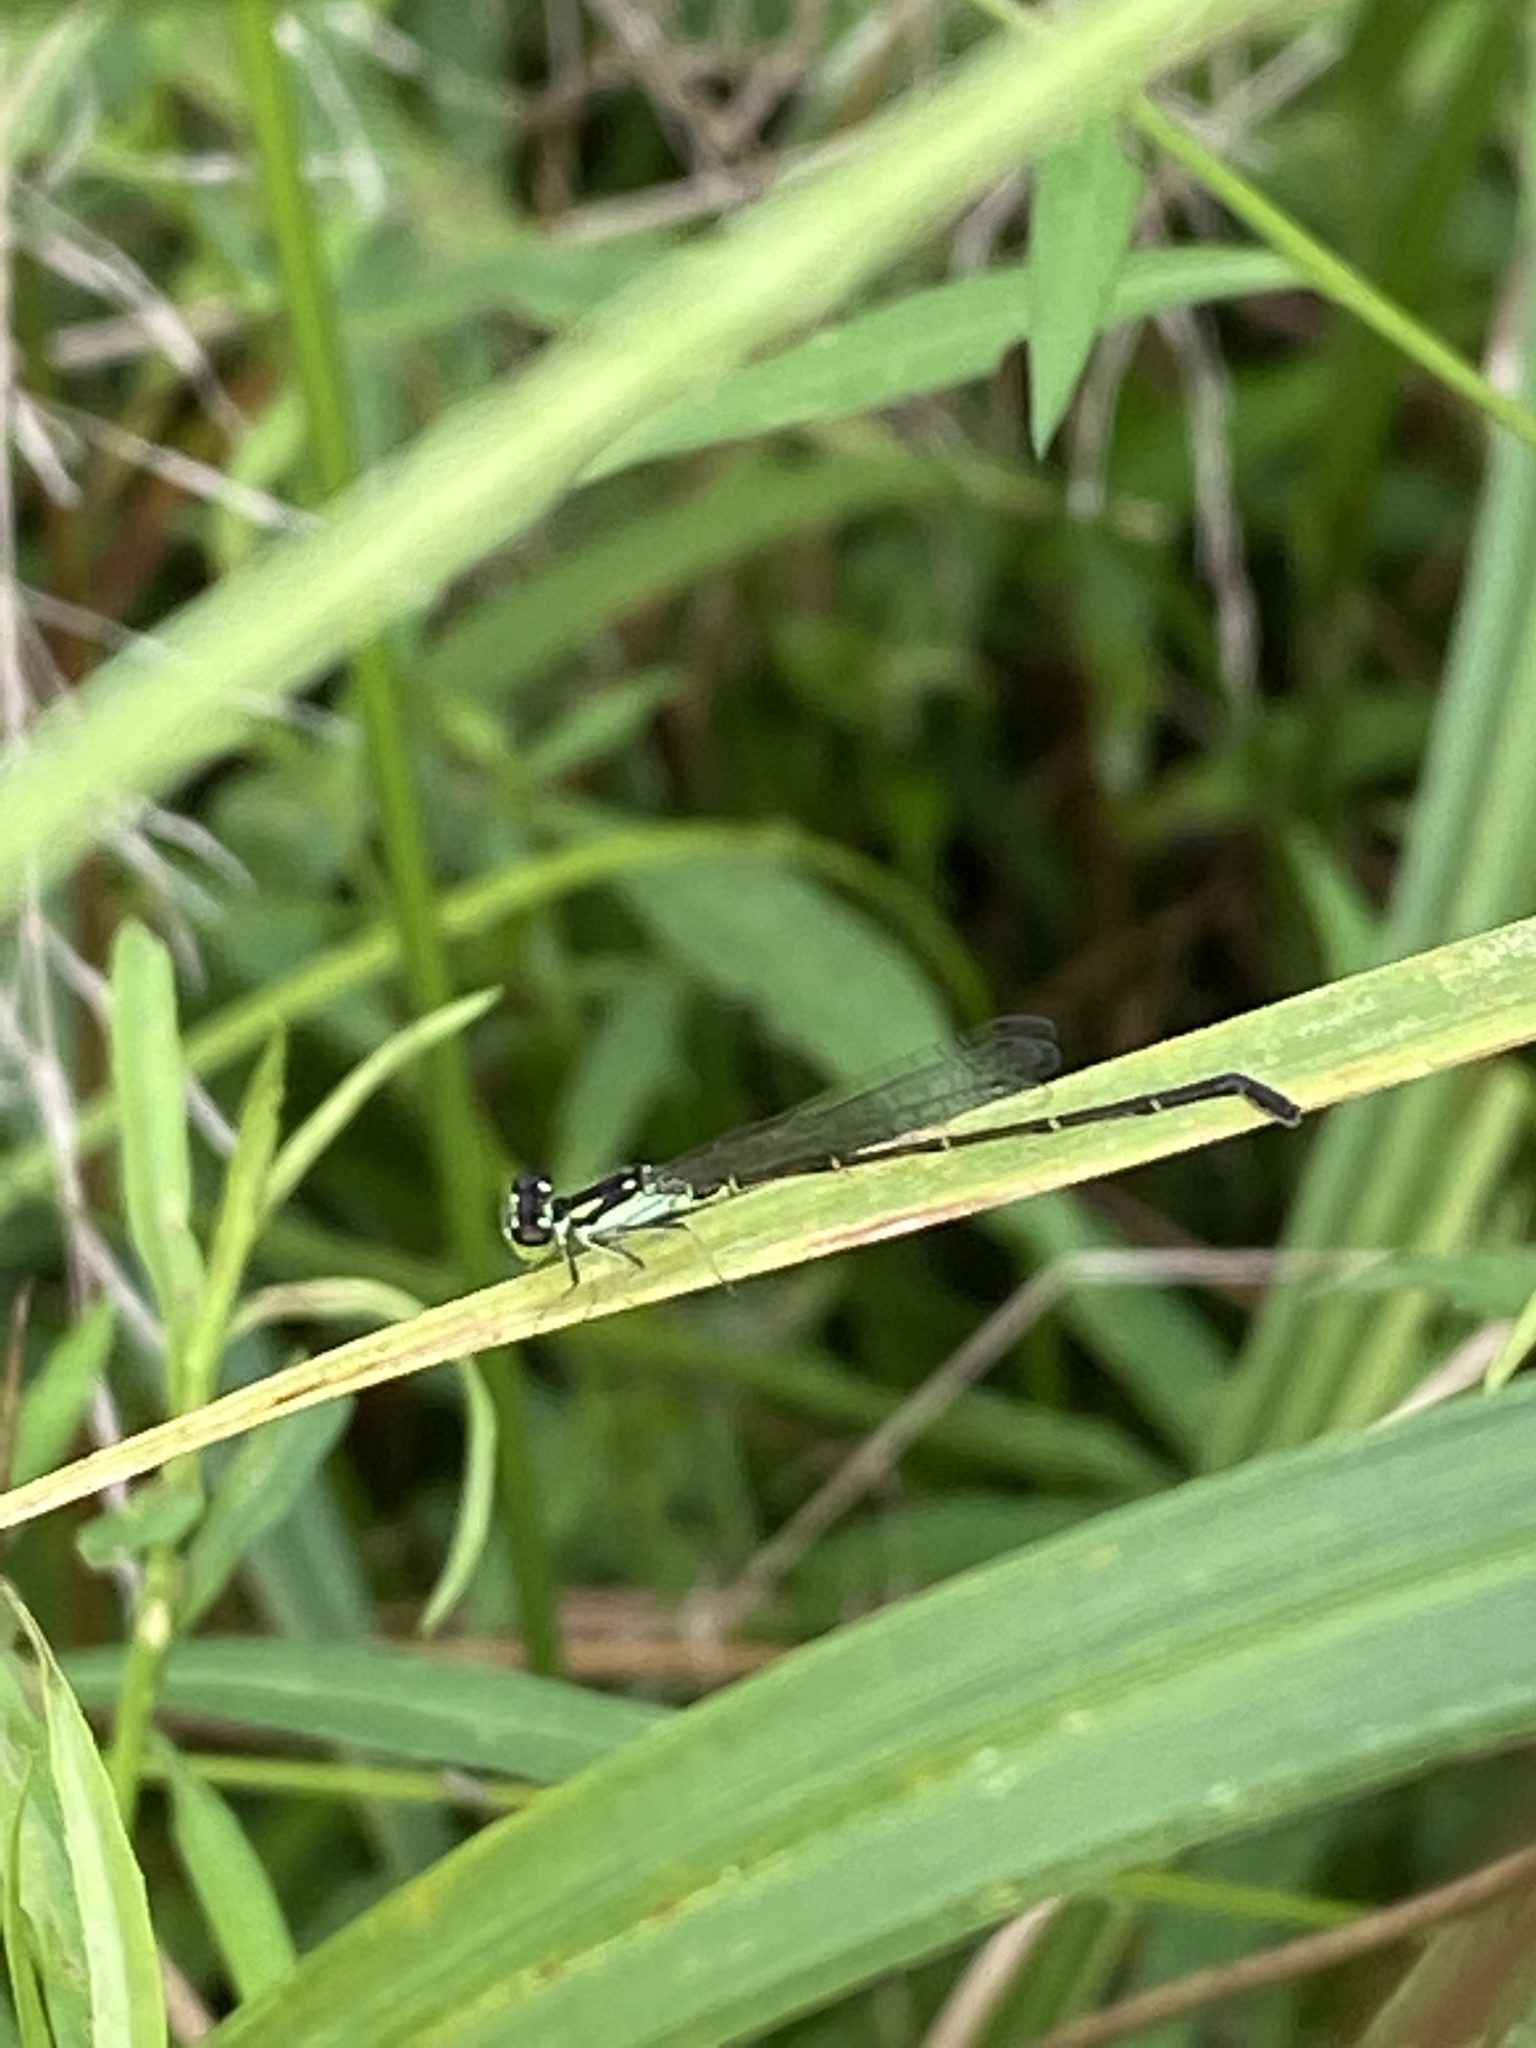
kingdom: Animalia
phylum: Arthropoda
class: Insecta
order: Odonata
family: Coenagrionidae
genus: Ischnura
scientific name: Ischnura posita
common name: Fragile forktail
